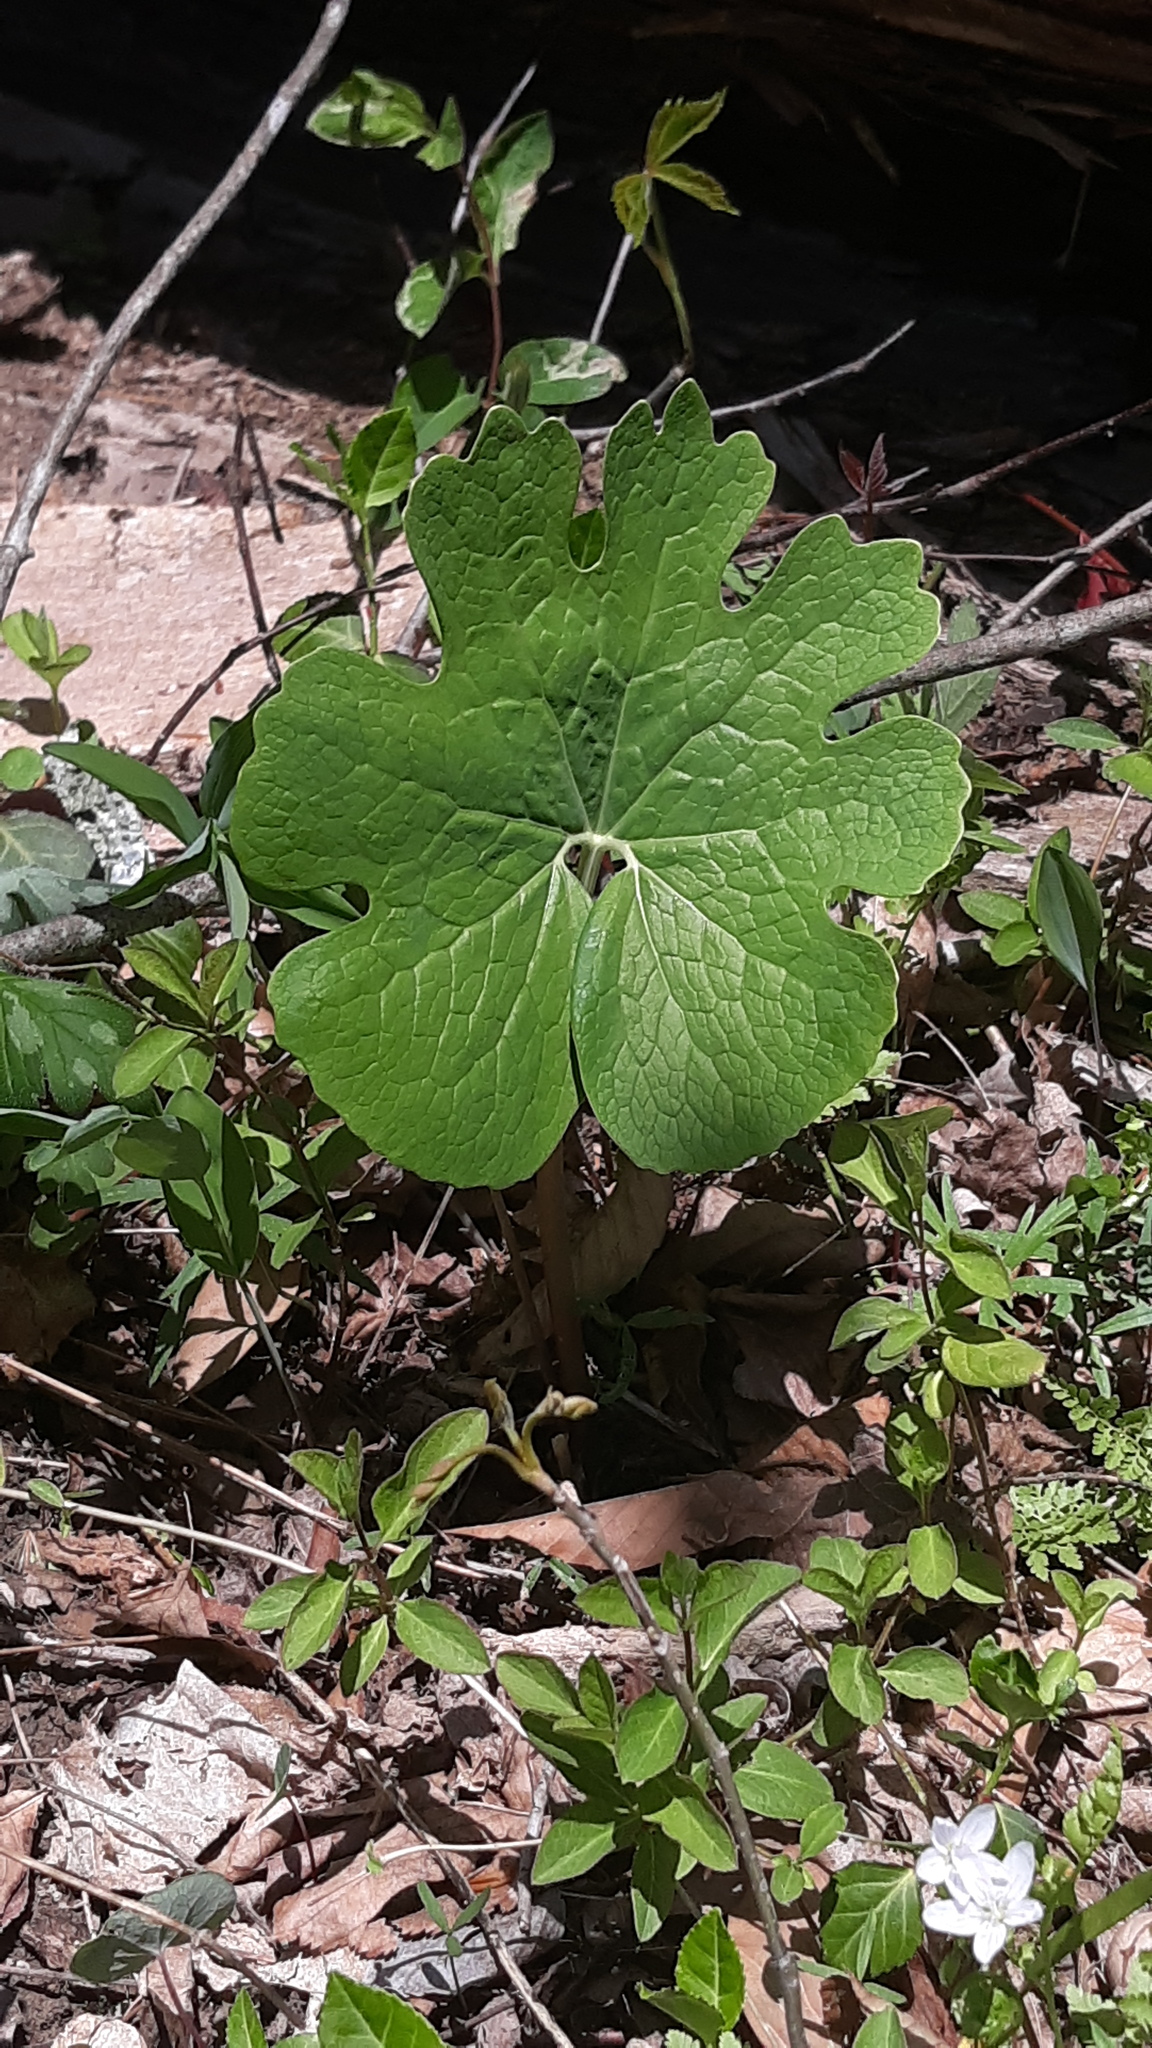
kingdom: Plantae
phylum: Tracheophyta
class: Magnoliopsida
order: Ranunculales
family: Papaveraceae
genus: Sanguinaria
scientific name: Sanguinaria canadensis
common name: Bloodroot
